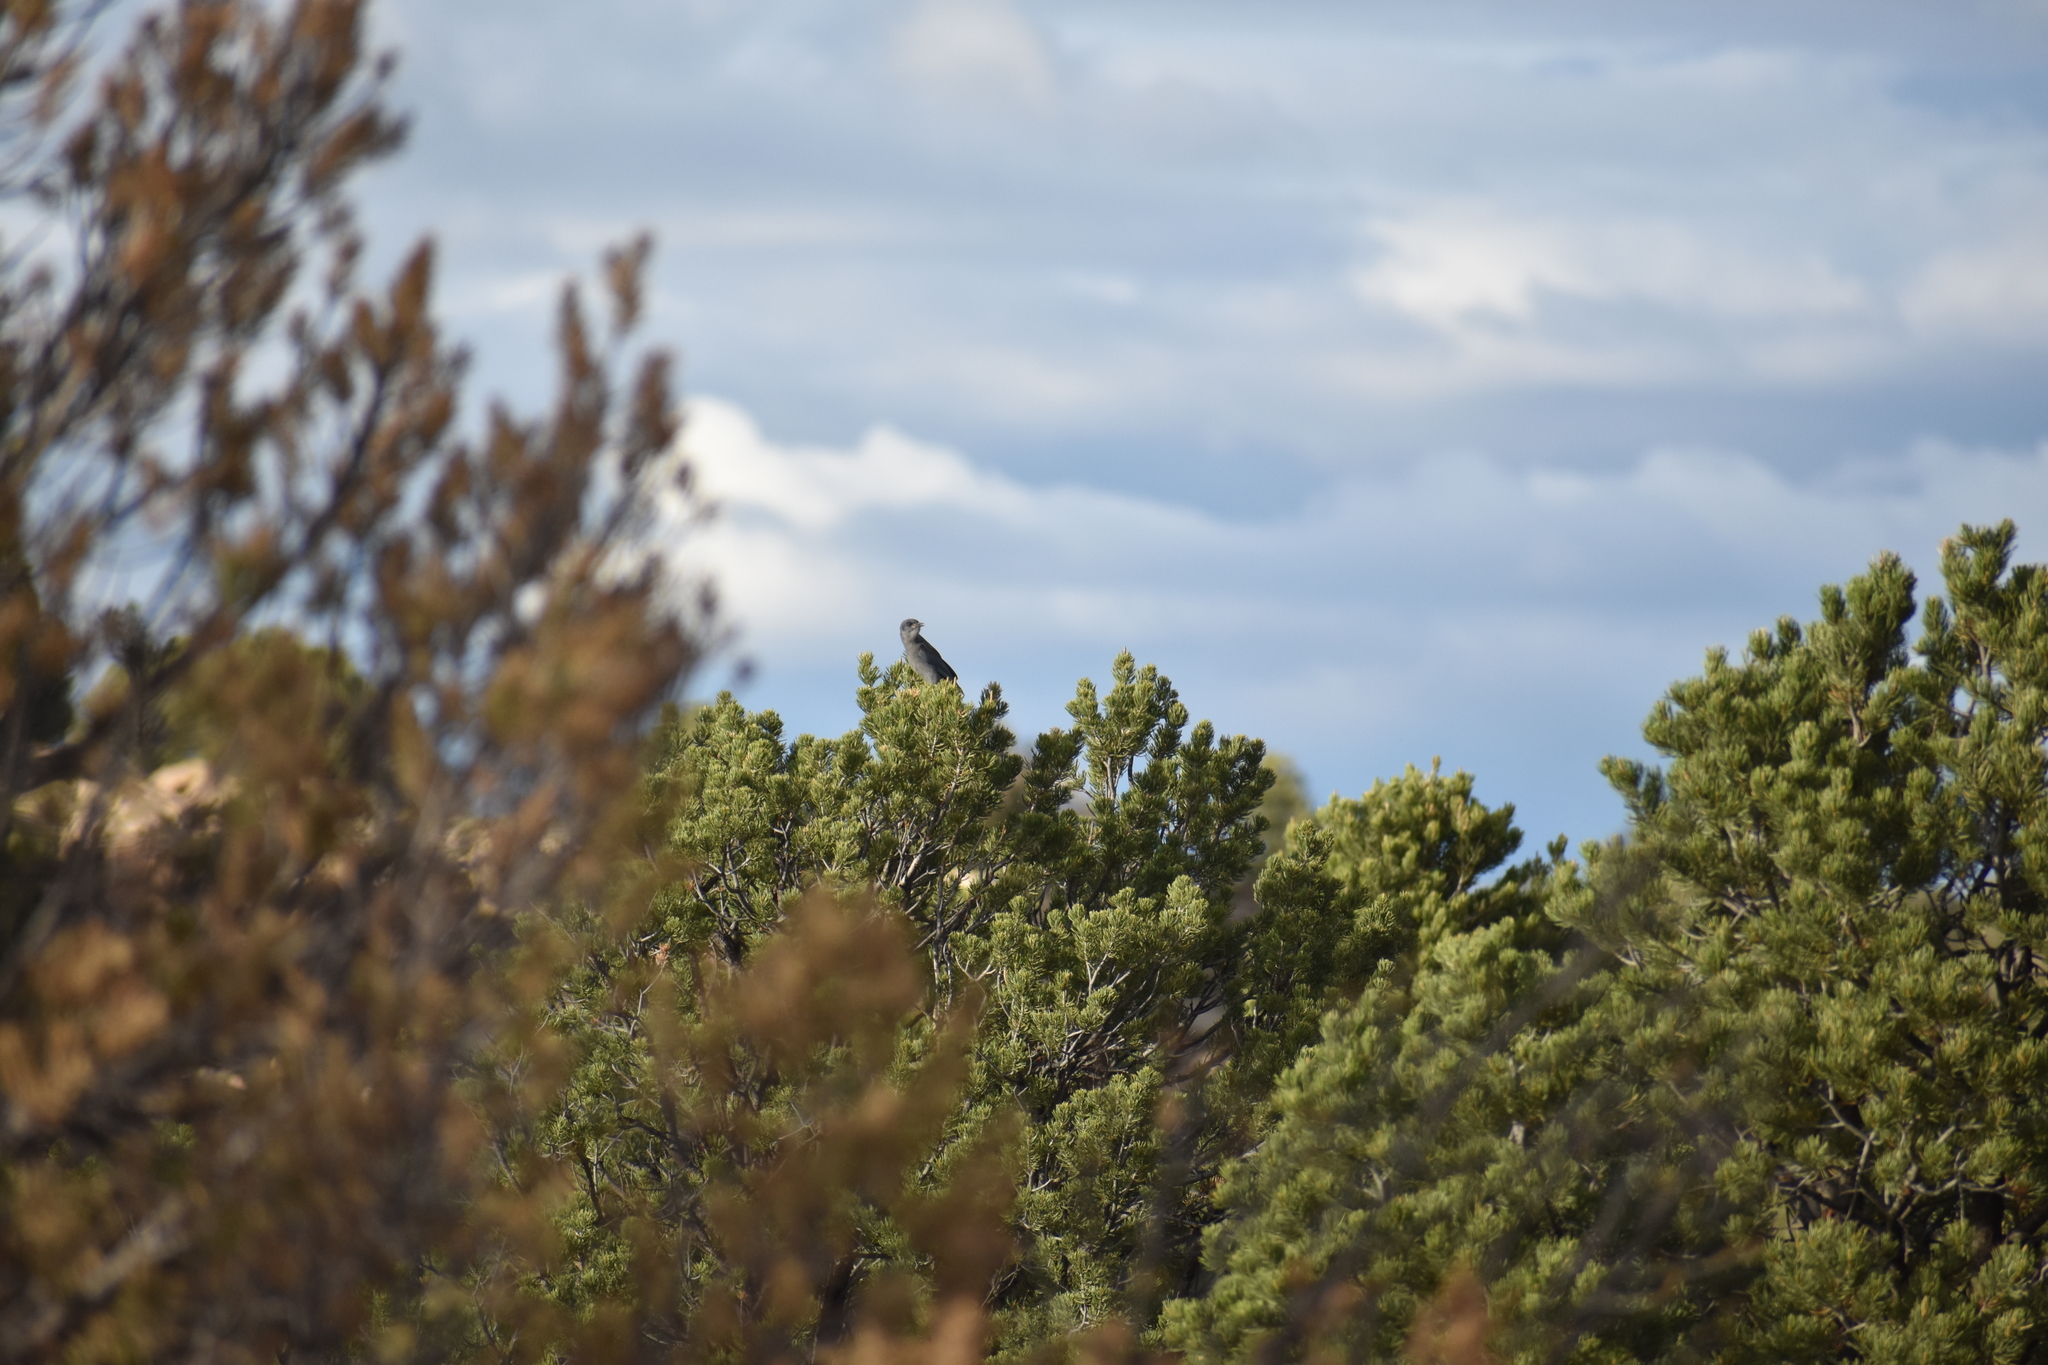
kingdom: Animalia
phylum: Chordata
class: Aves
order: Passeriformes
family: Corvidae
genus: Gymnorhinus
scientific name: Gymnorhinus cyanocephalus
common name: Pinyon jay
